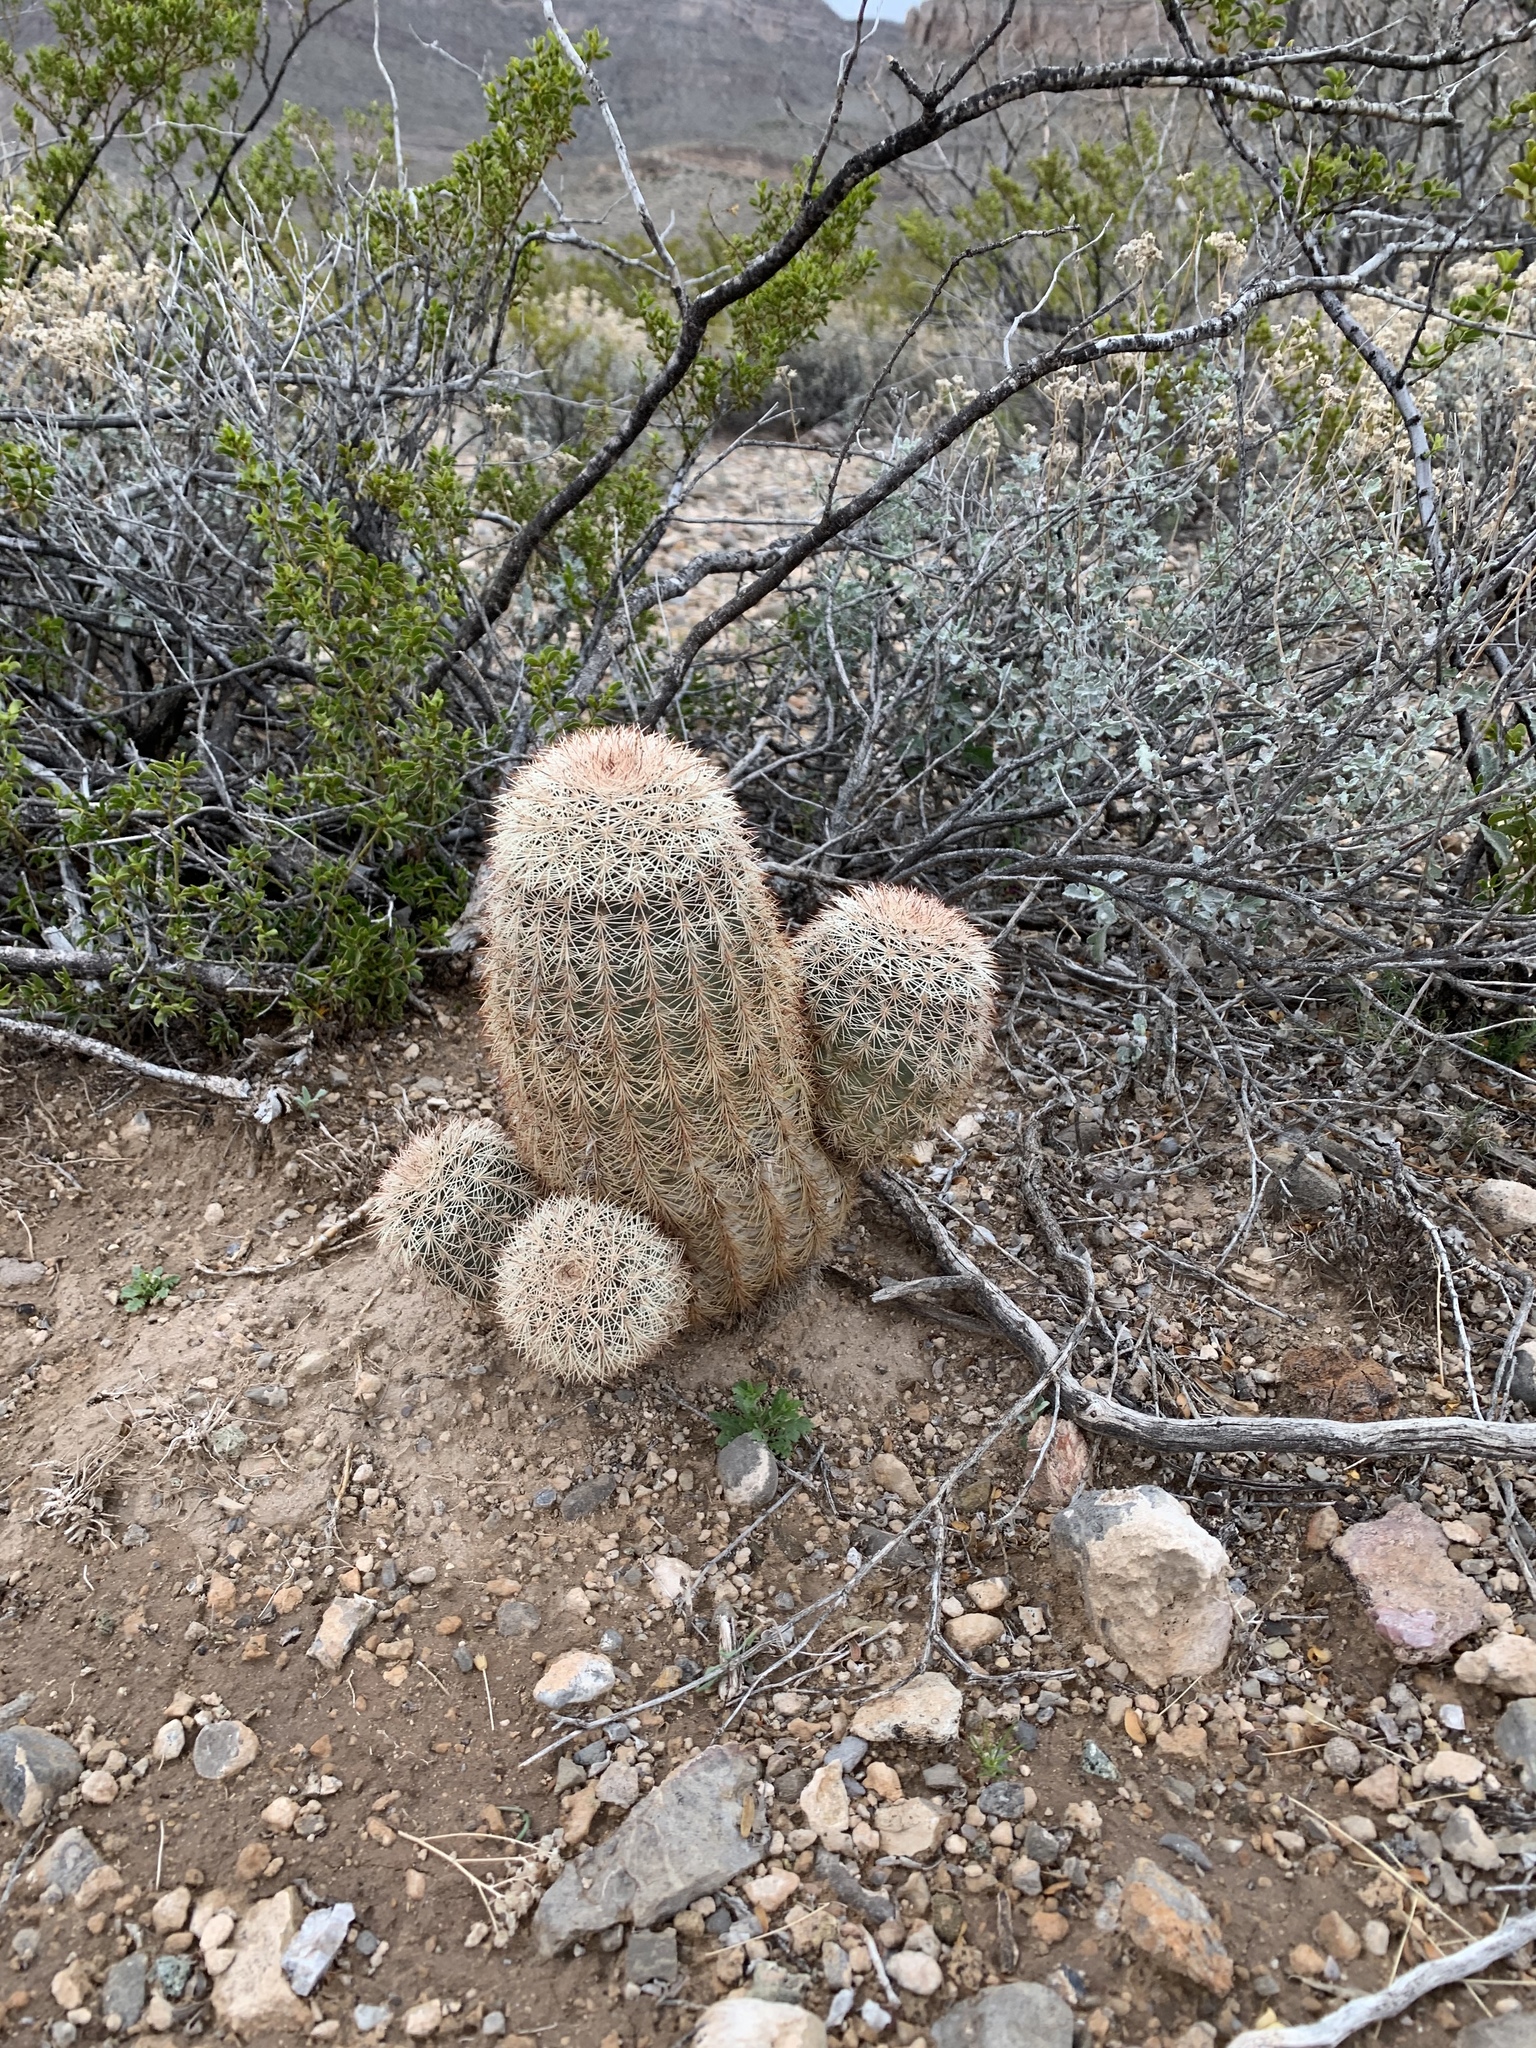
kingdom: Plantae
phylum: Tracheophyta
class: Magnoliopsida
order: Caryophyllales
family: Cactaceae
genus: Echinocereus
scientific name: Echinocereus dasyacanthus
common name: Spiny hedgehog cactus
